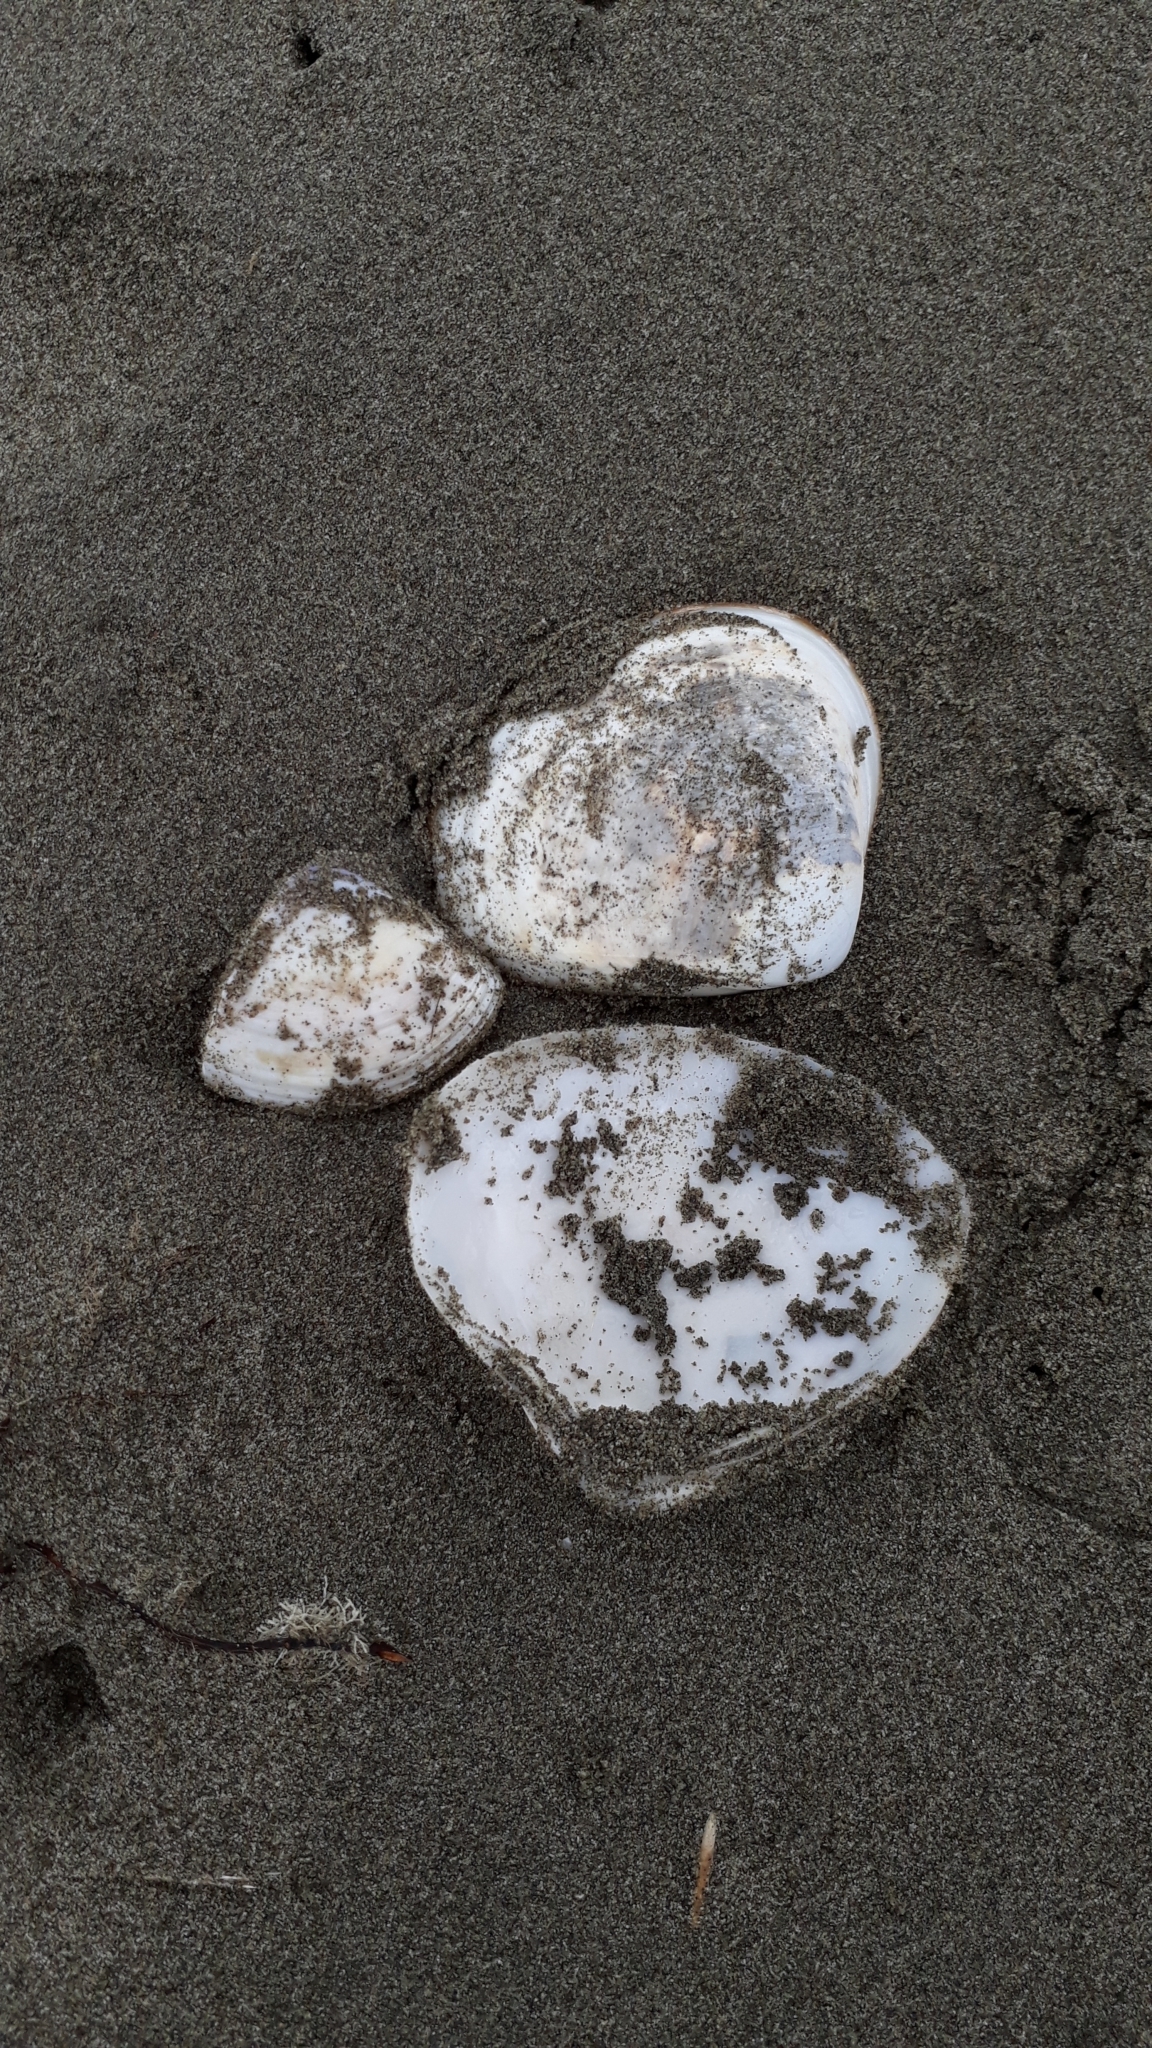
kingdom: Animalia
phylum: Mollusca
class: Bivalvia
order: Venerida
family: Mactridae
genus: Spisula
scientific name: Spisula murchisoni
